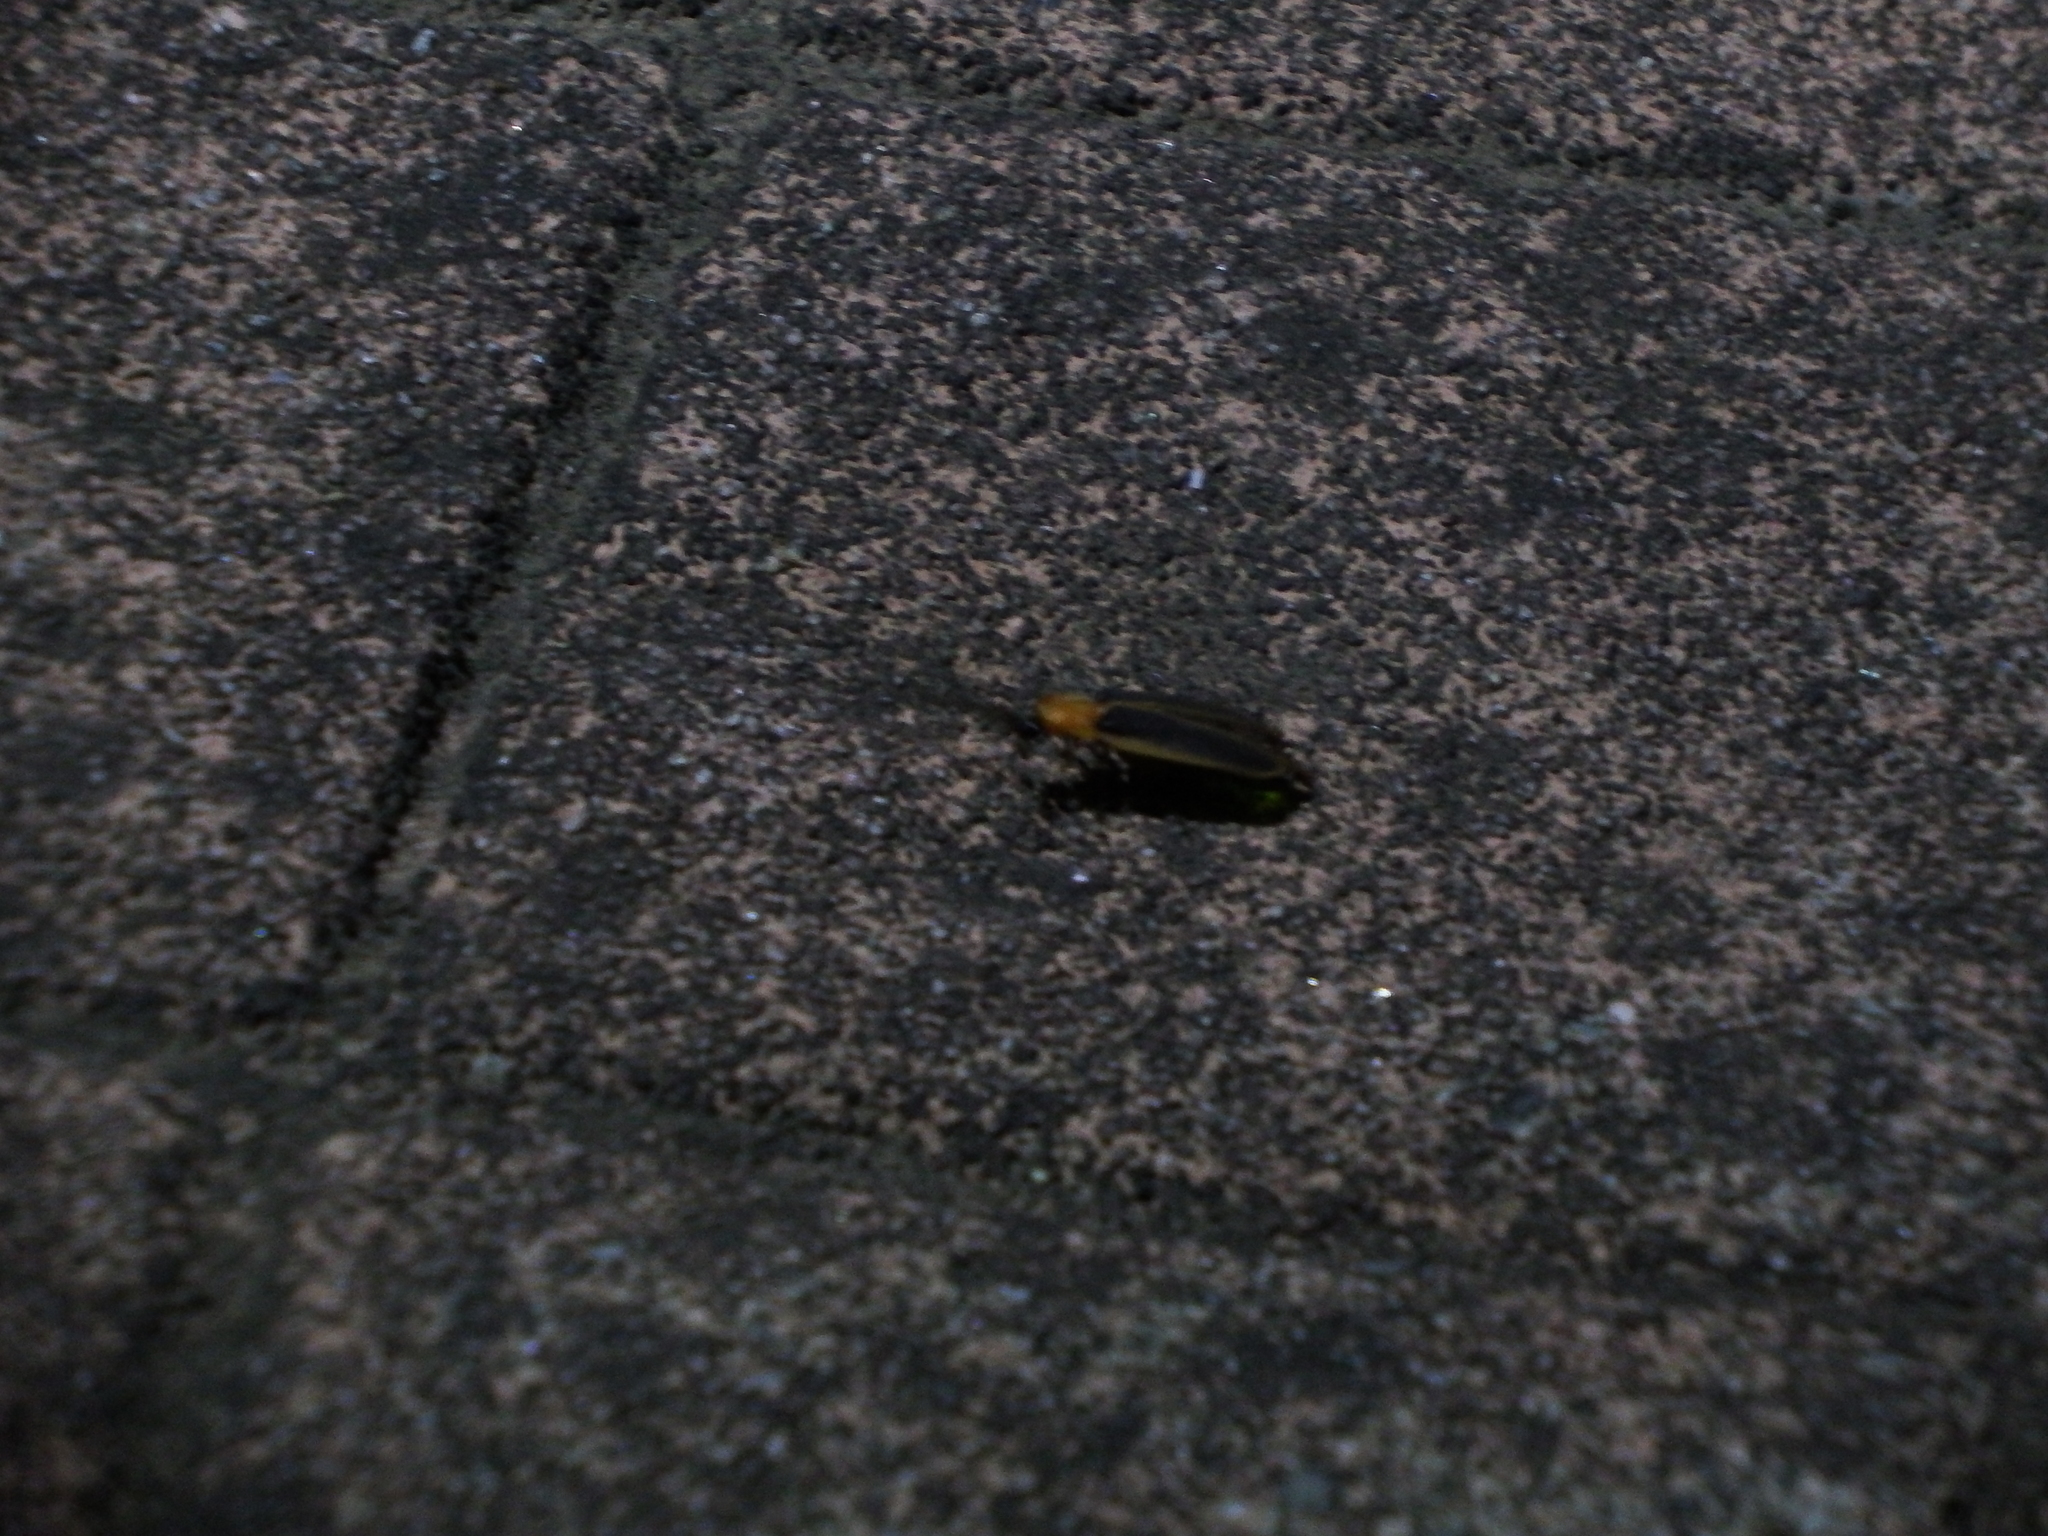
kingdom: Animalia
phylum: Arthropoda
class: Insecta
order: Coleoptera
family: Lampyridae
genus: Pyrocoelia
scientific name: Pyrocoelia analis
